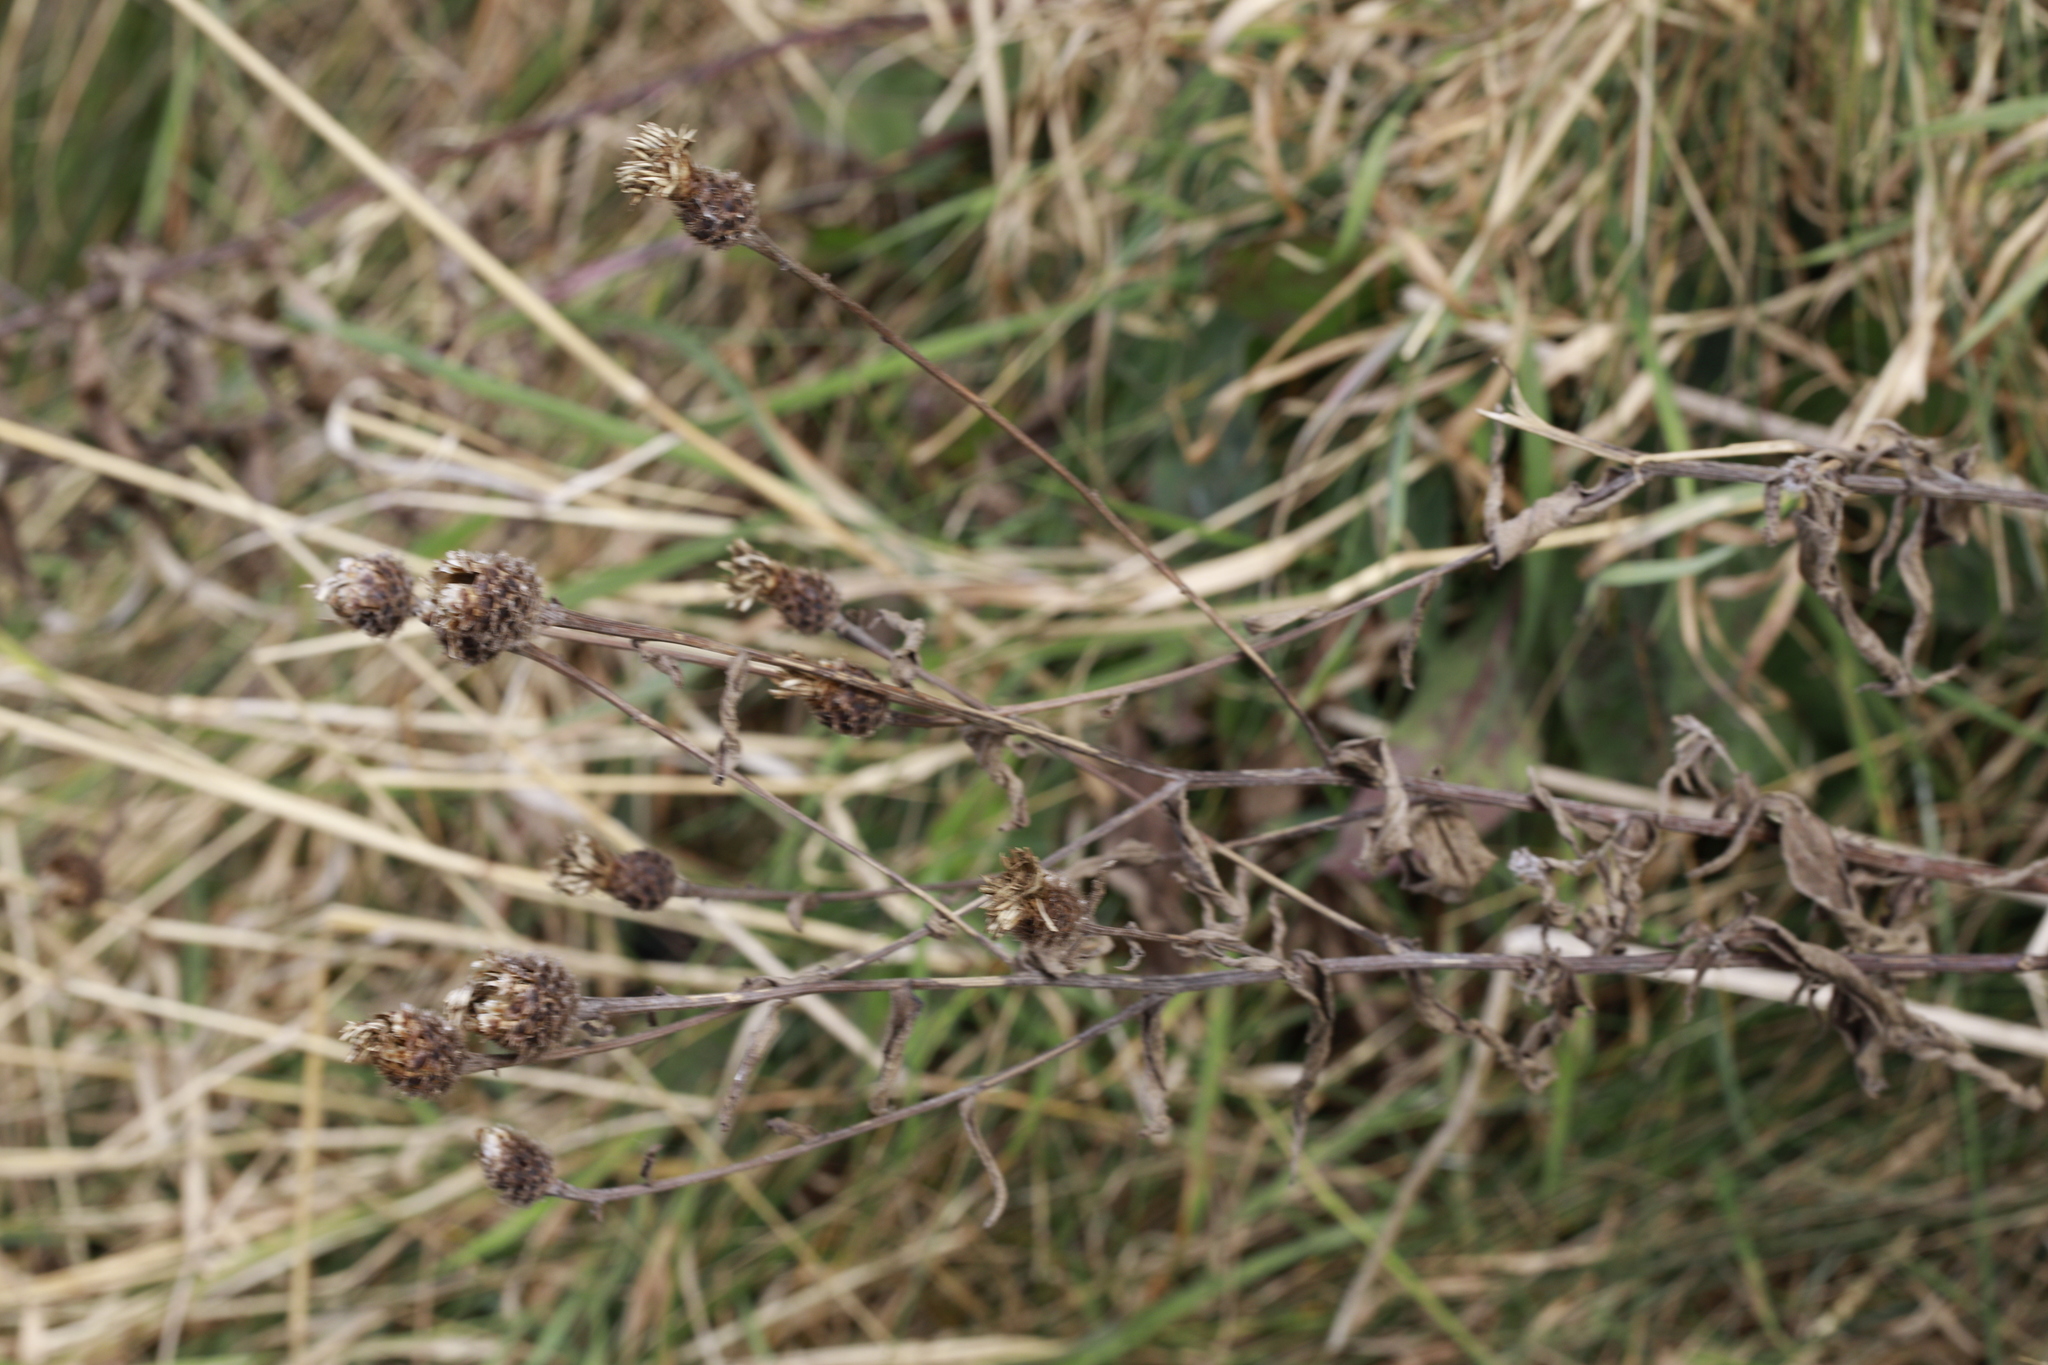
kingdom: Plantae
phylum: Tracheophyta
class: Magnoliopsida
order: Asterales
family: Asteraceae
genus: Centaurea
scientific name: Centaurea nigra
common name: Lesser knapweed
